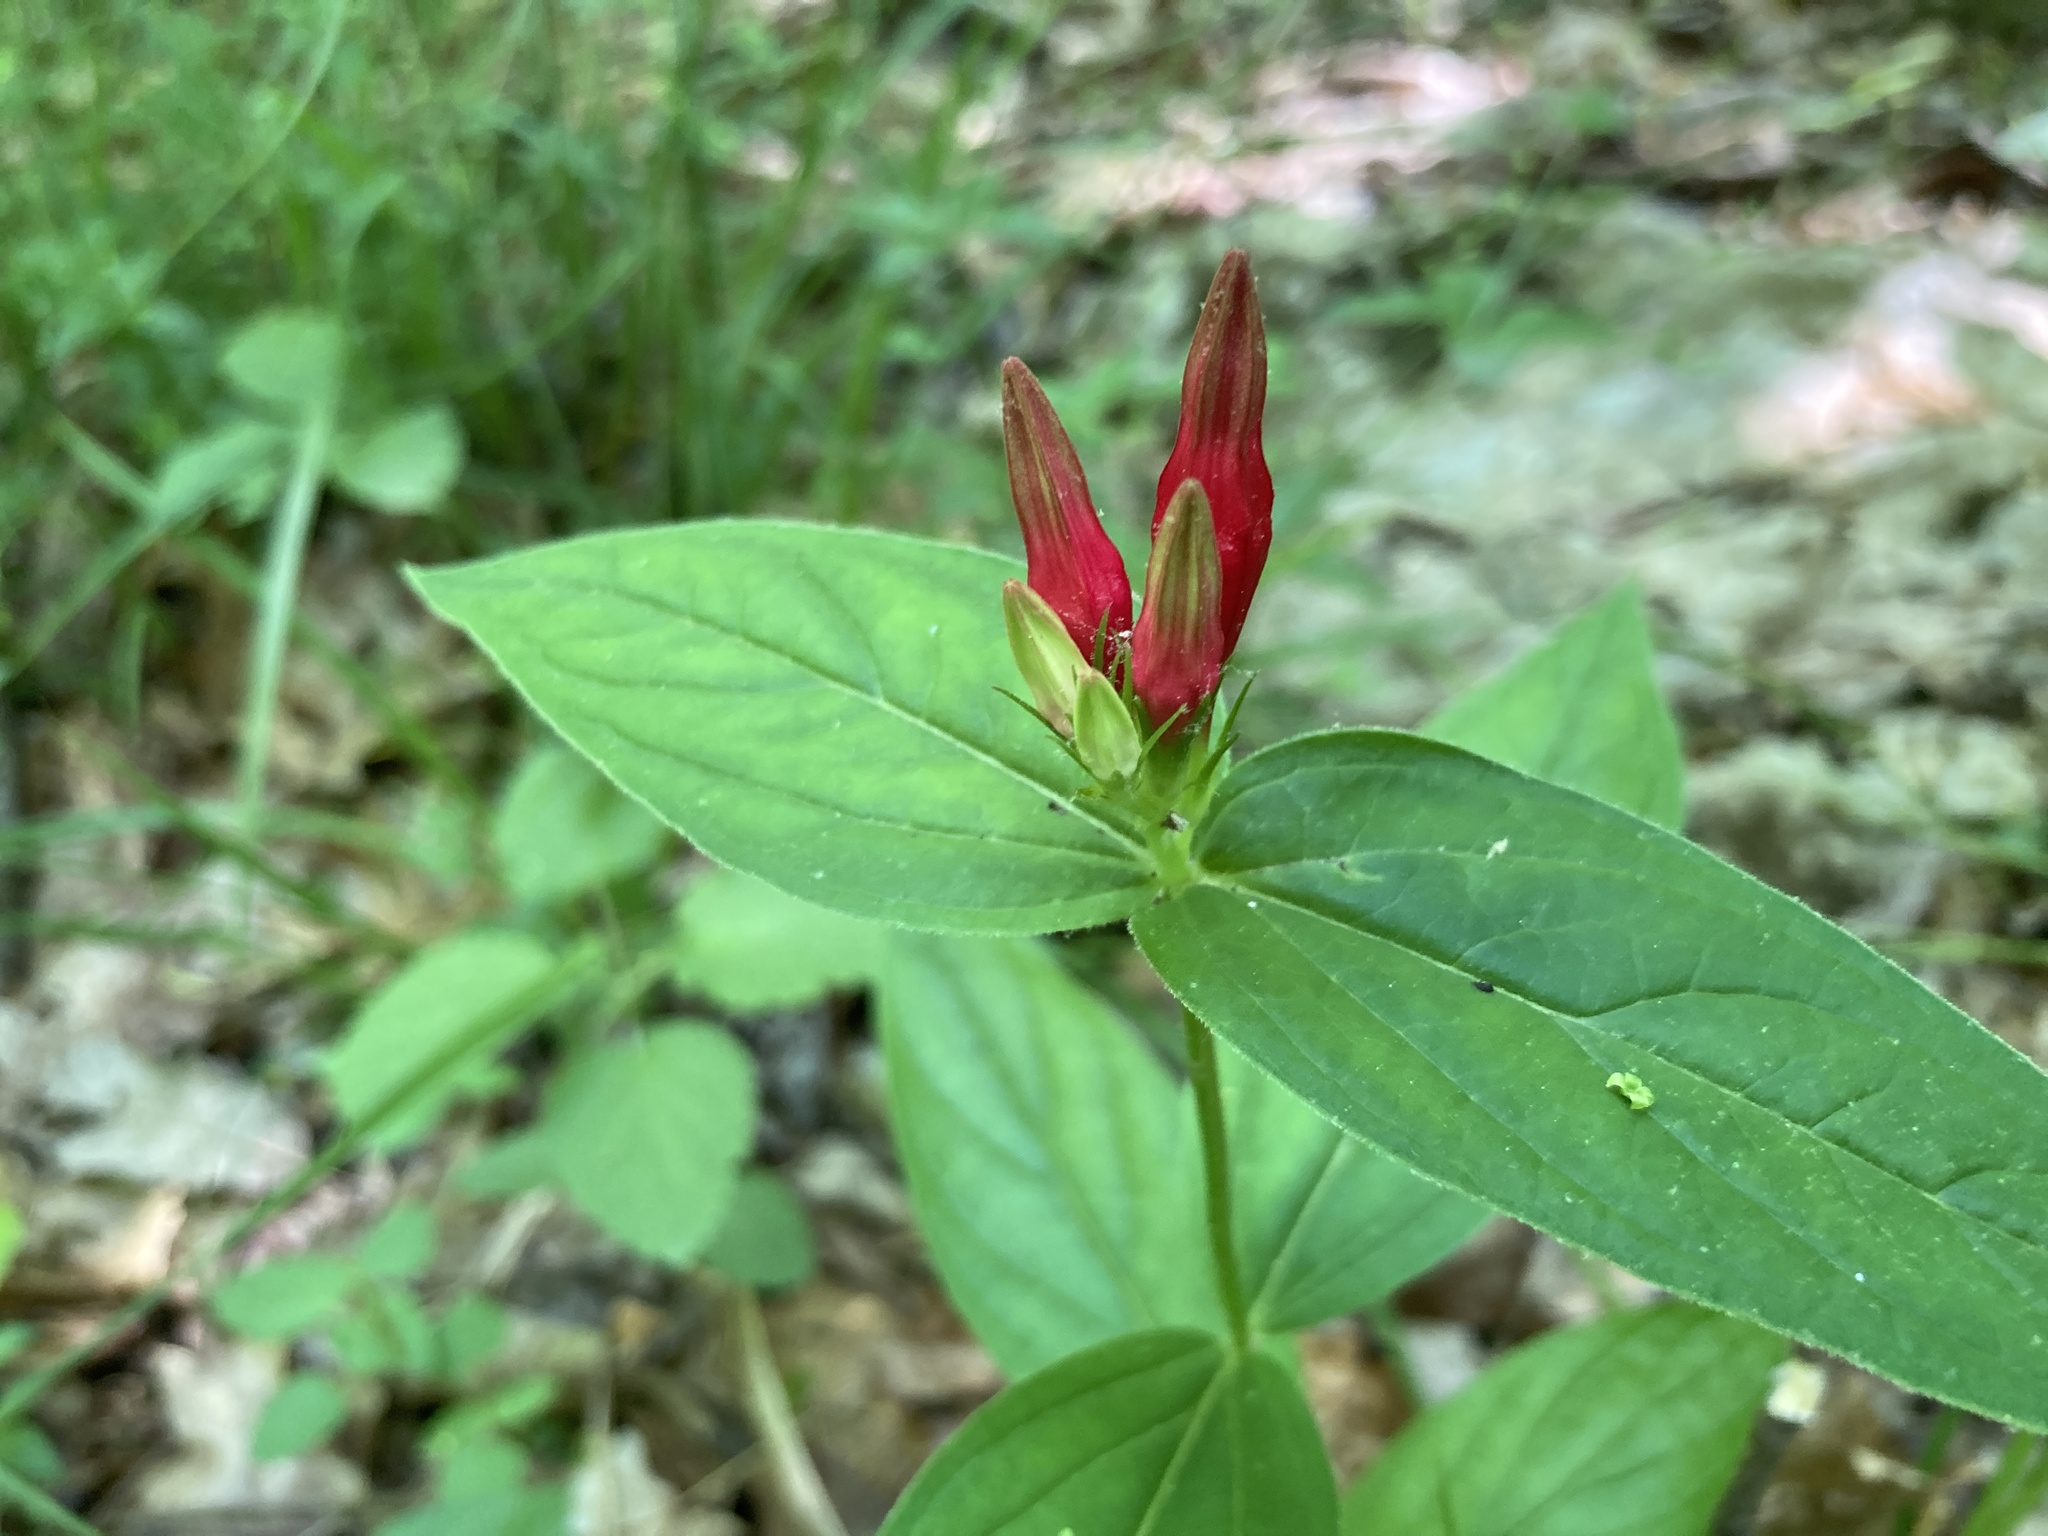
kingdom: Plantae
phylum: Tracheophyta
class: Magnoliopsida
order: Gentianales
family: Loganiaceae
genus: Spigelia
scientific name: Spigelia marilandica
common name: Indian-pink
